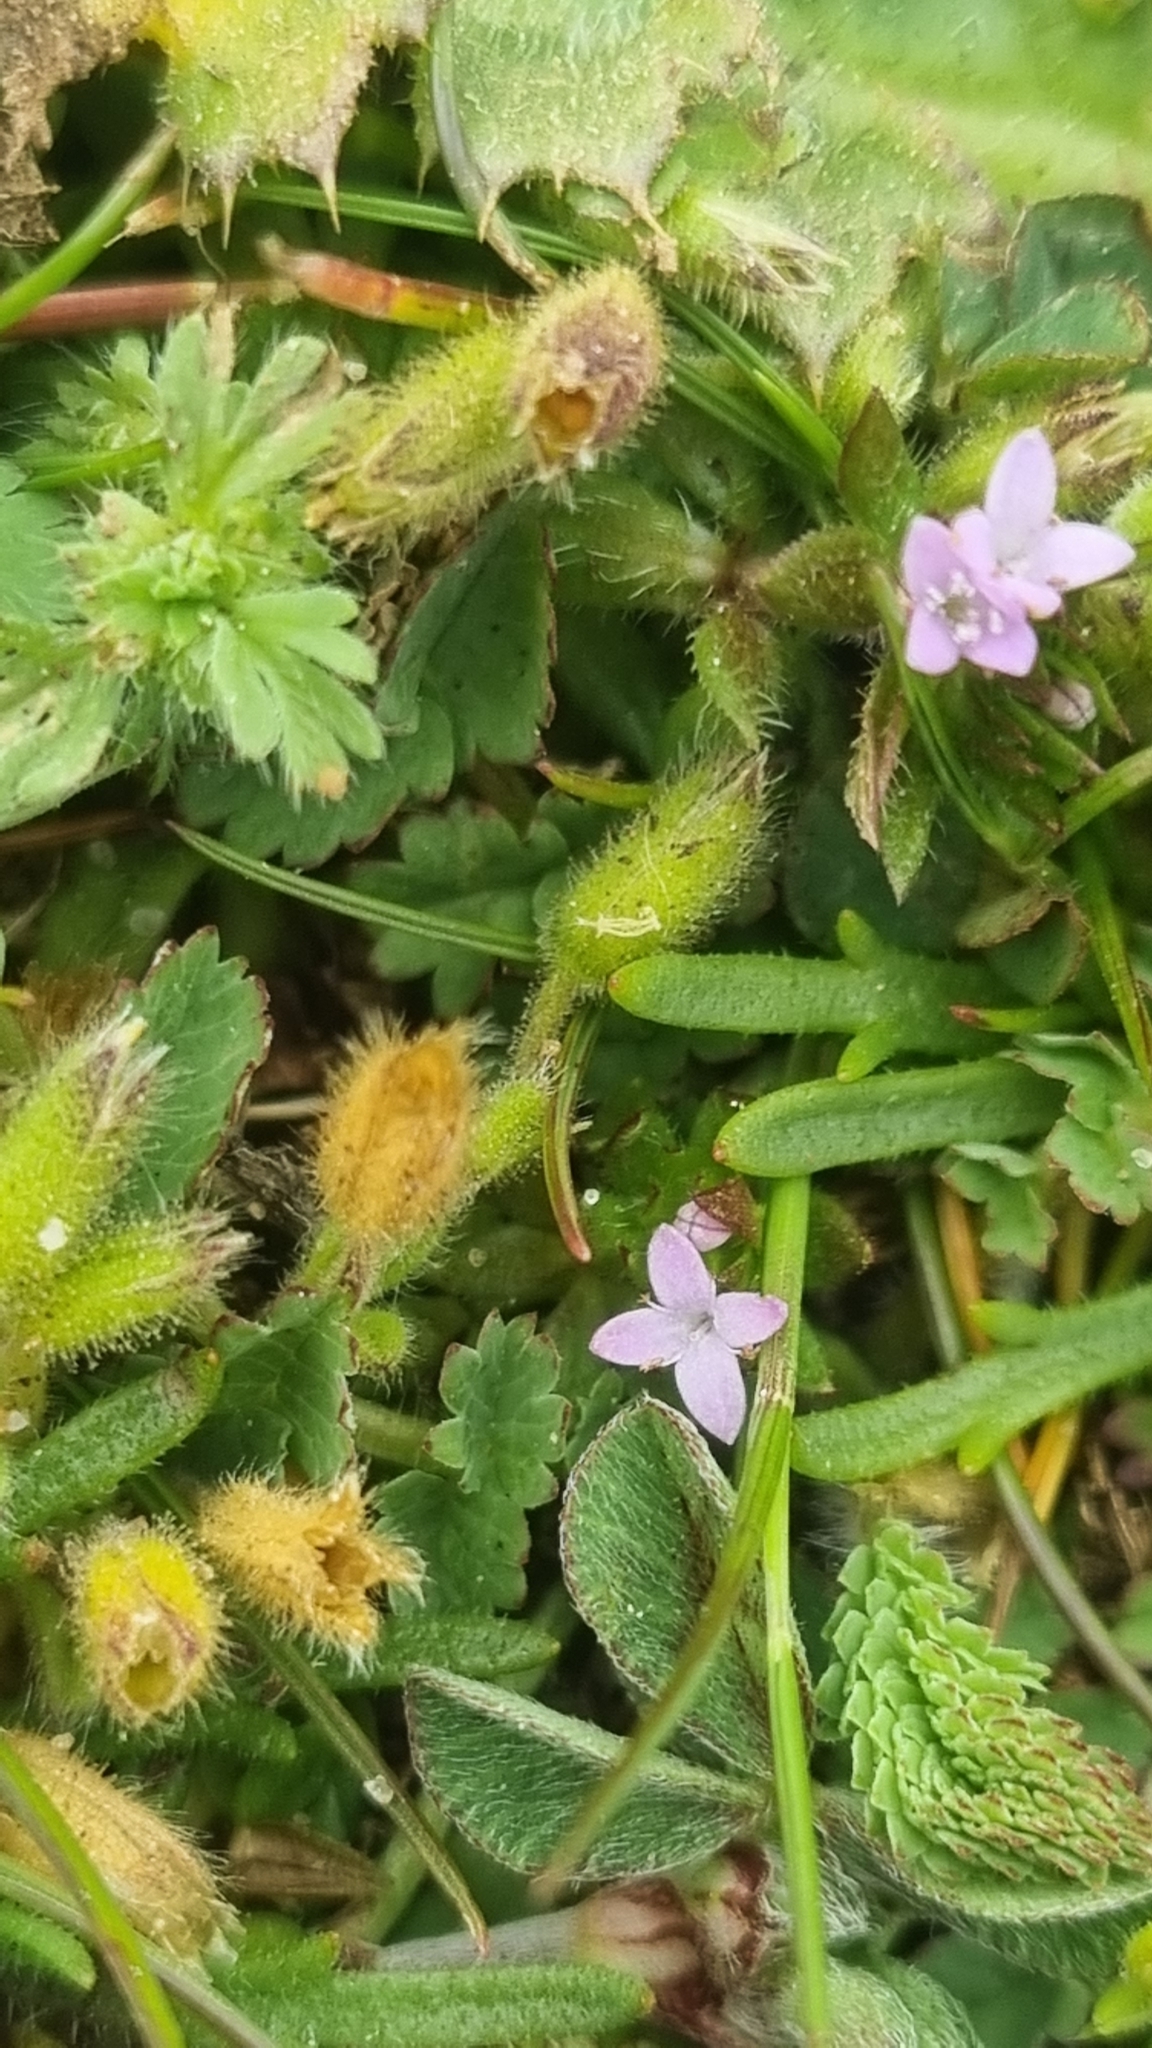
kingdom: Plantae
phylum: Tracheophyta
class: Magnoliopsida
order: Gentianales
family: Rubiaceae
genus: Sherardia
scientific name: Sherardia arvensis
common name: Field madder
